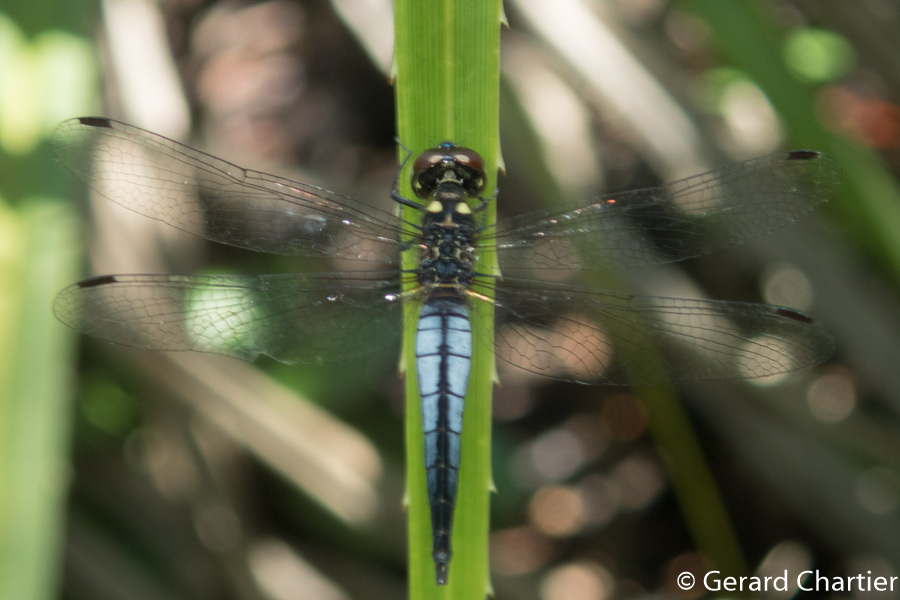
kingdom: Animalia
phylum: Arthropoda
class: Insecta
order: Odonata
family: Libellulidae
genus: Lyriothemis
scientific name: Lyriothemis mortoni
